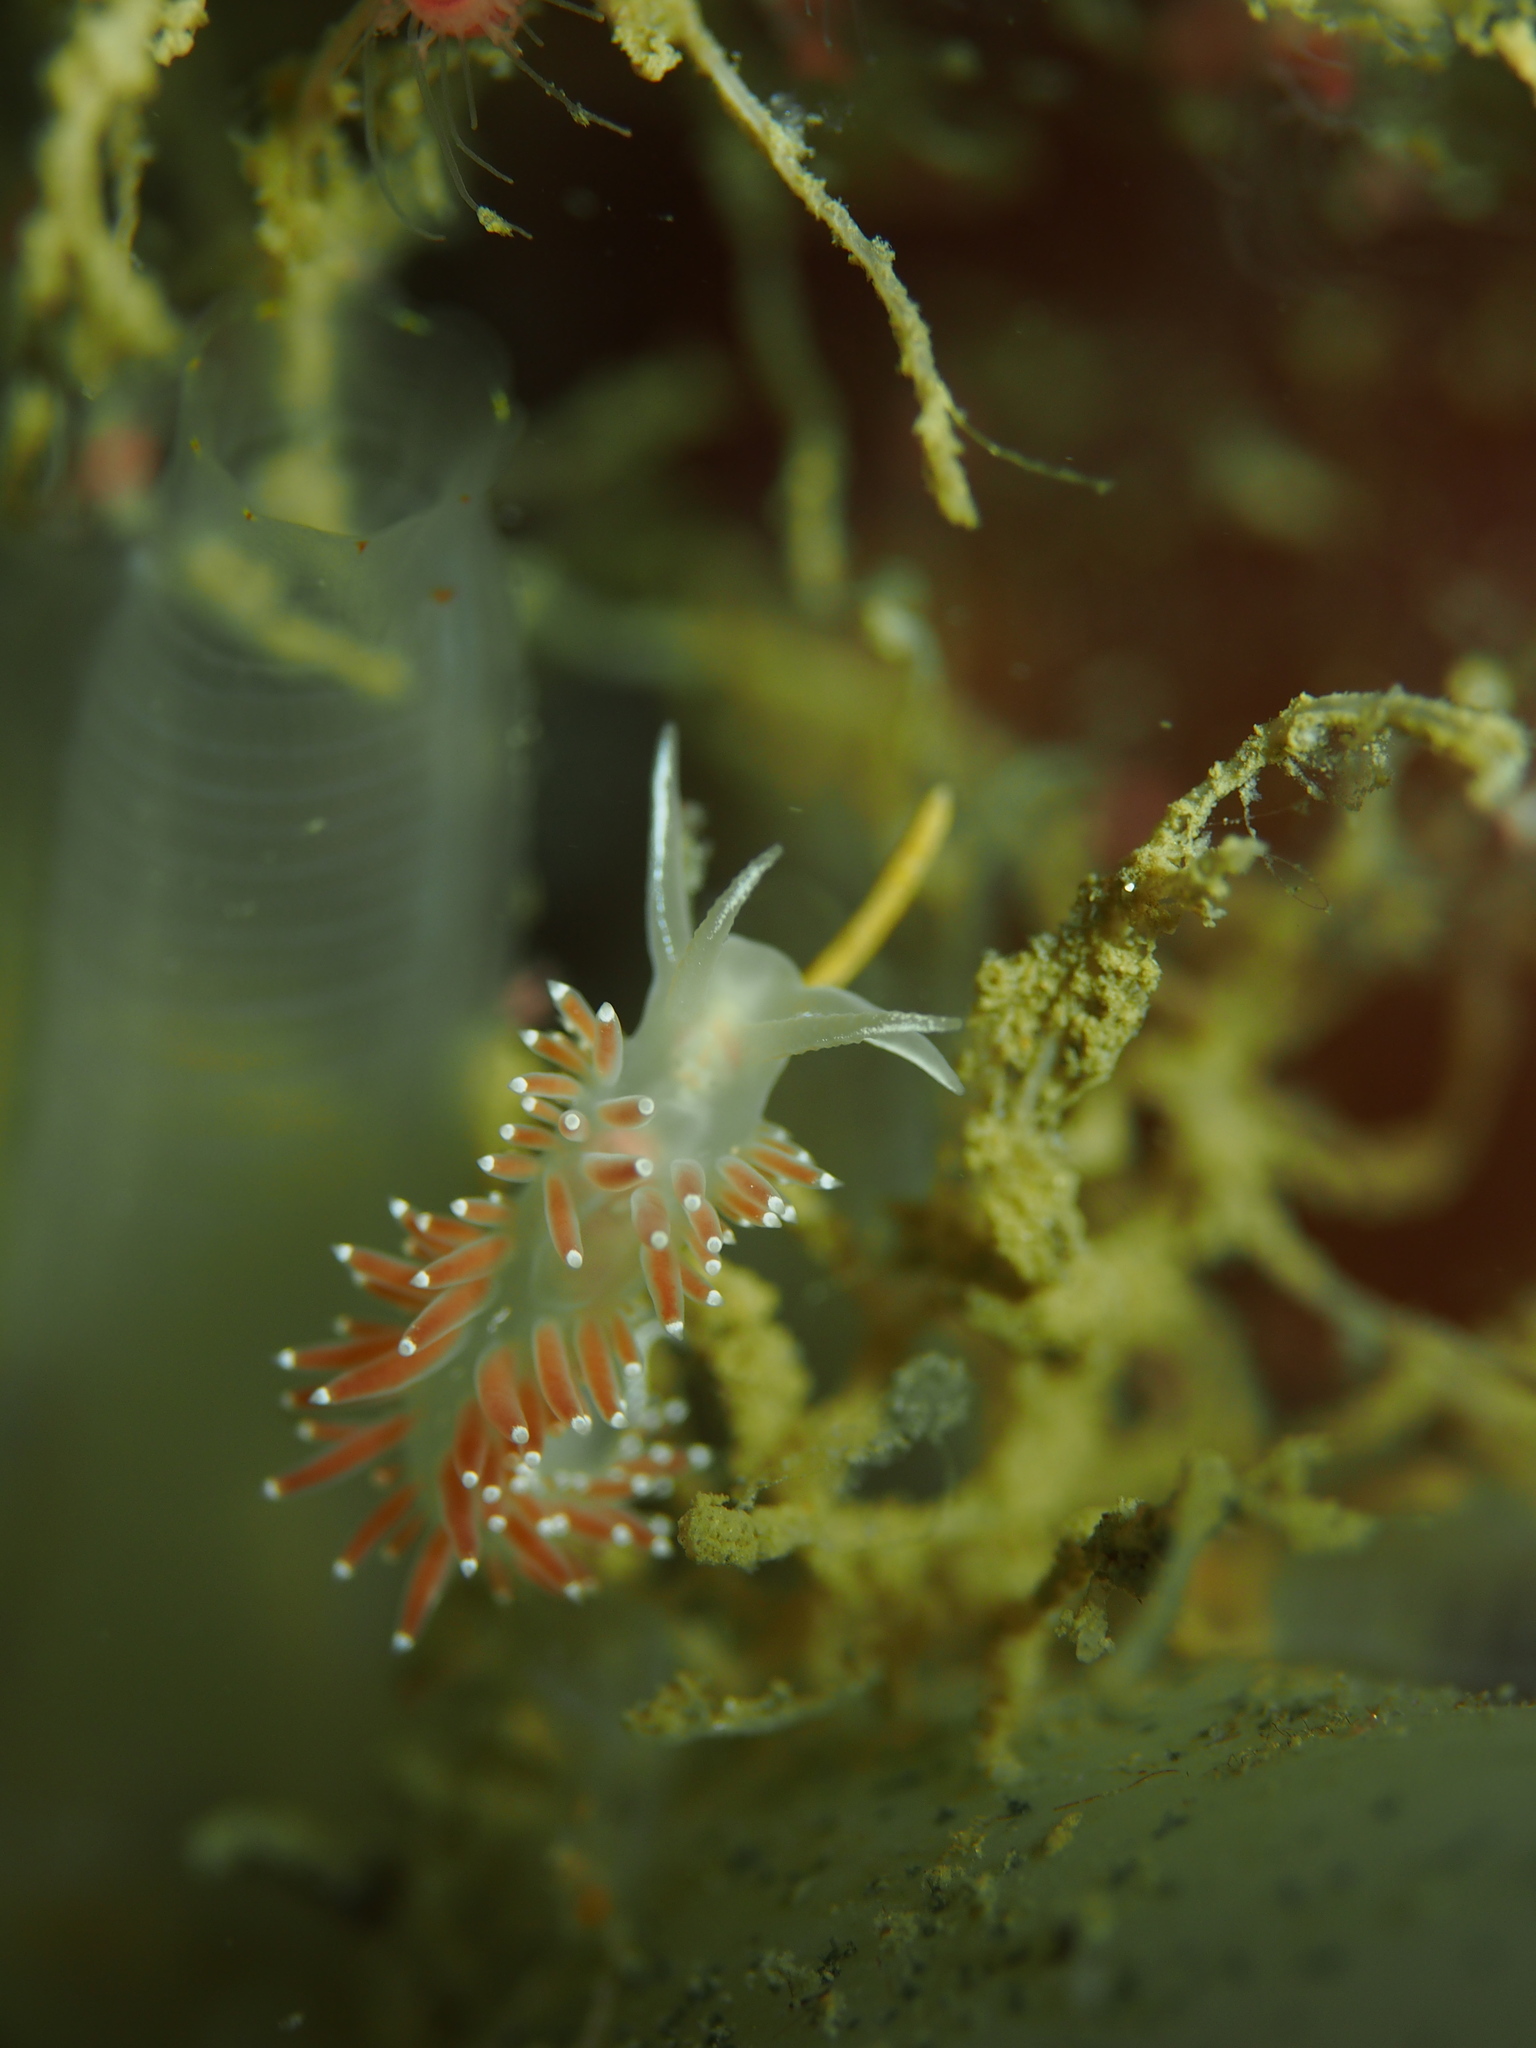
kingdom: Animalia
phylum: Mollusca
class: Gastropoda
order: Nudibranchia
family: Coryphellidae
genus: Coryphella
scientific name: Coryphella verrucosa
